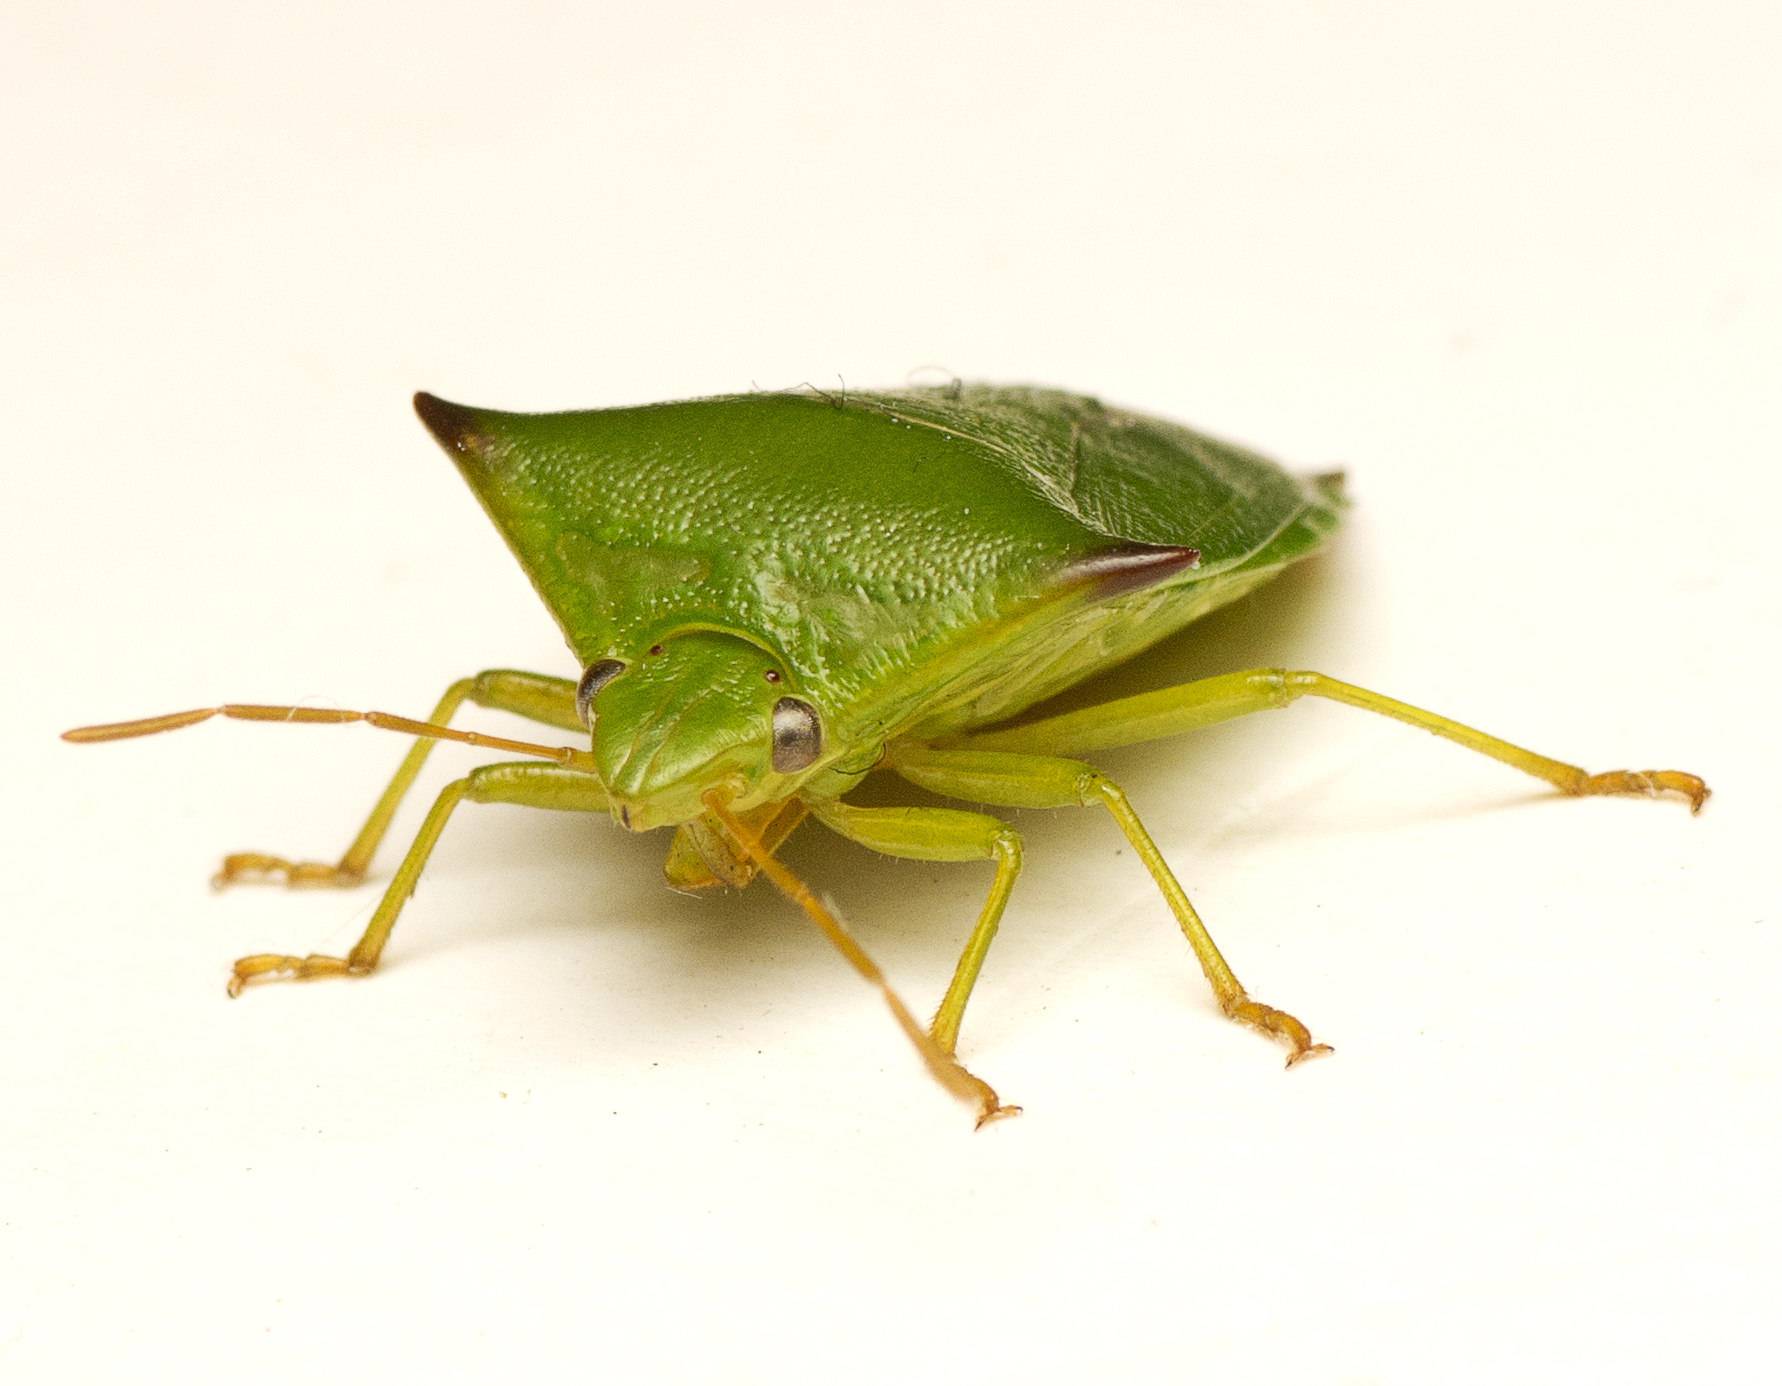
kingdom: Animalia
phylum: Arthropoda
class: Insecta
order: Hemiptera
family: Pentatomidae
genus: Mygoodano
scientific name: Mygoodano
